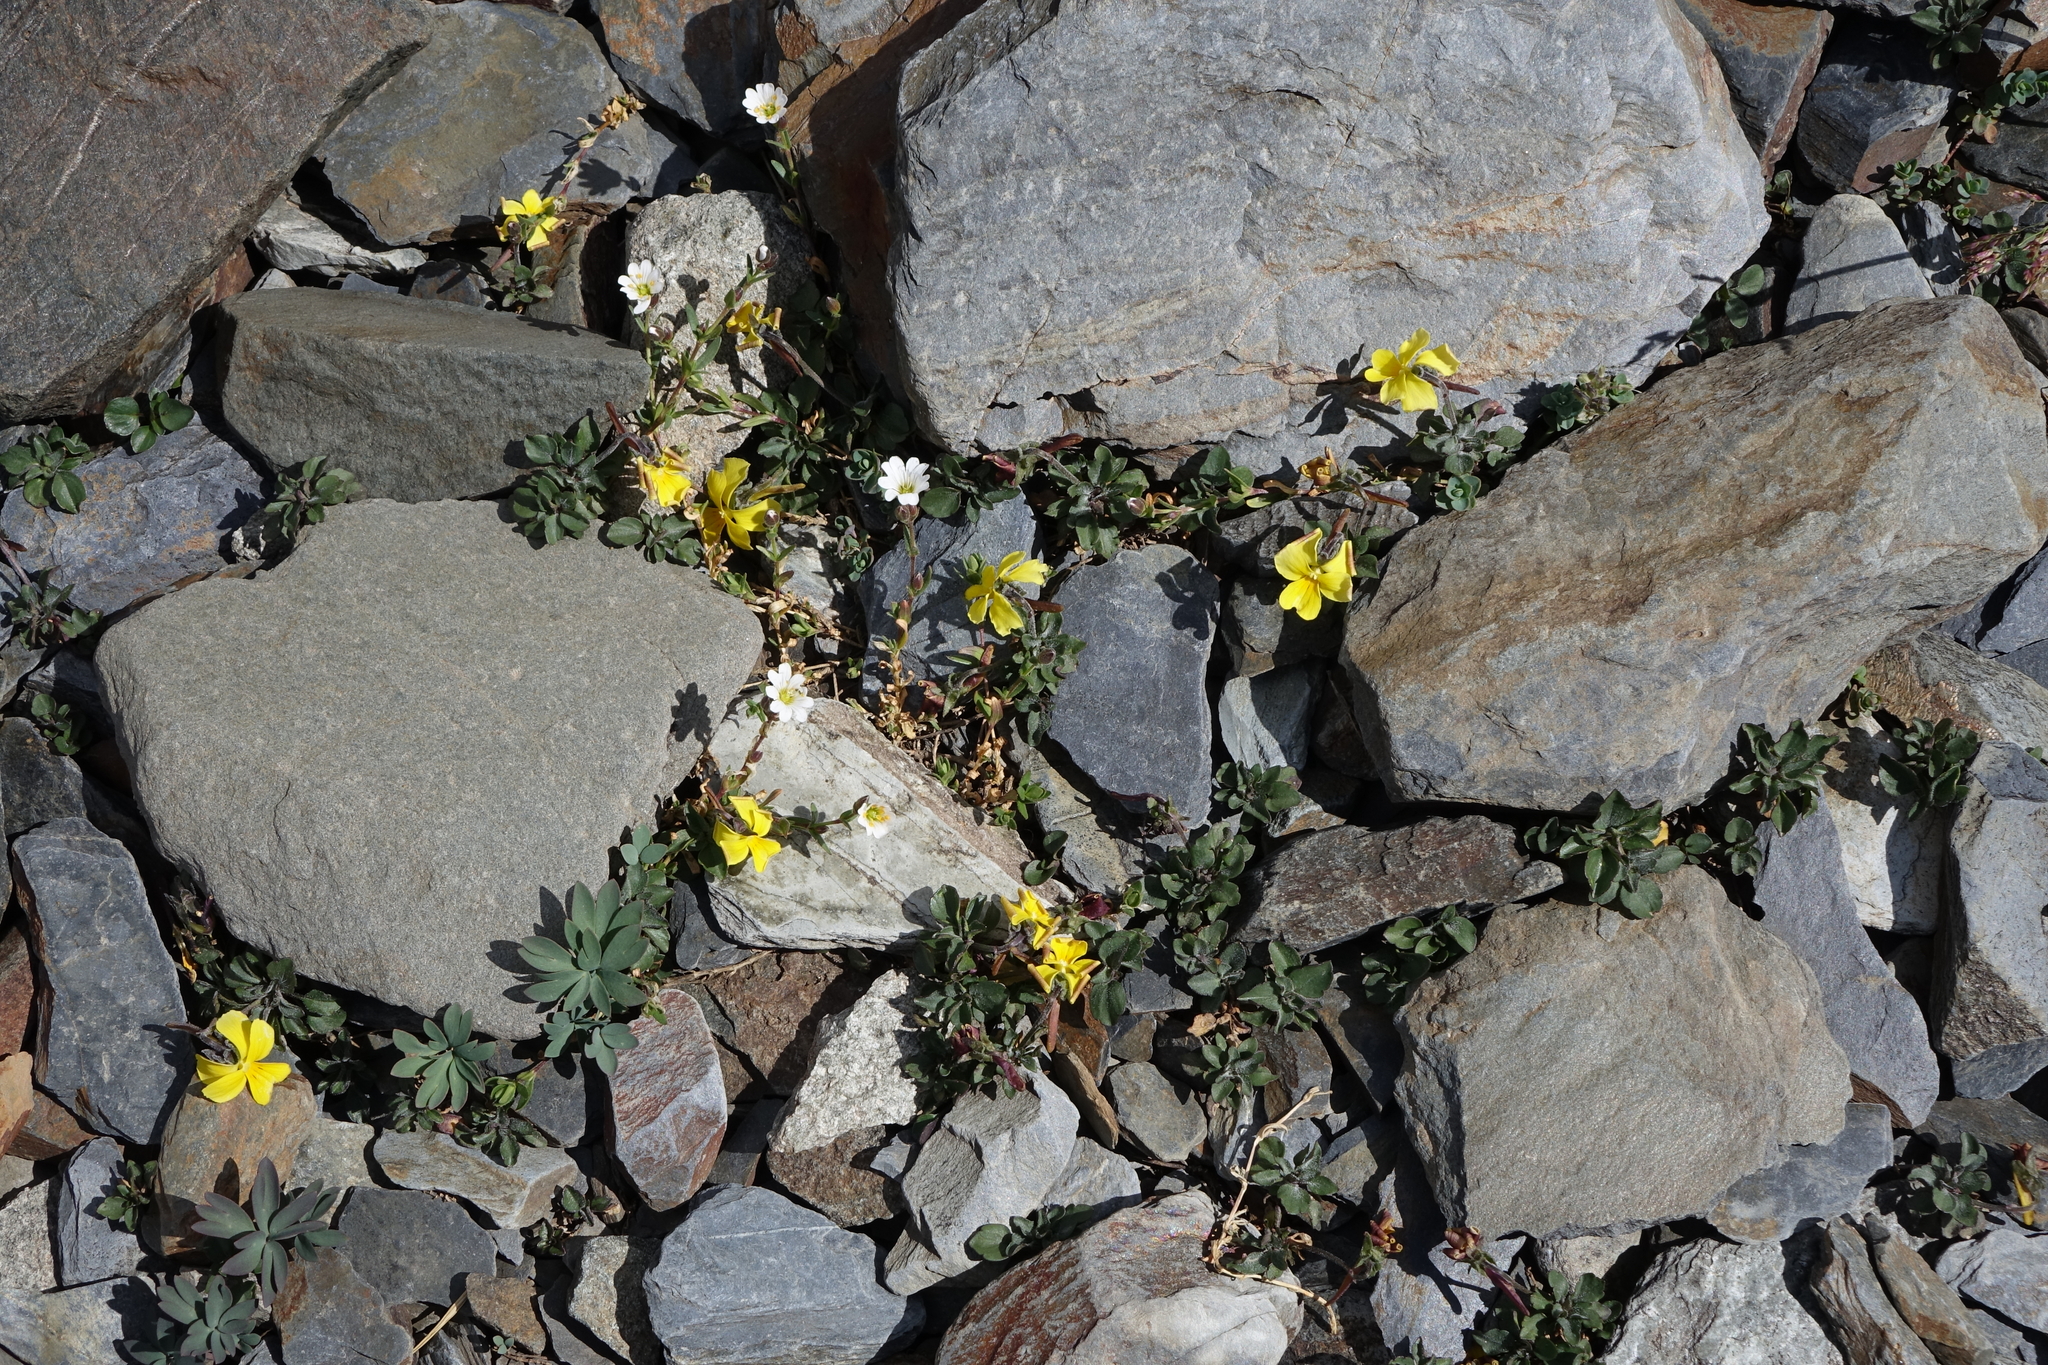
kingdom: Plantae
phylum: Tracheophyta
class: Magnoliopsida
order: Malpighiales
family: Violaceae
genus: Viola
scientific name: Viola minuta
